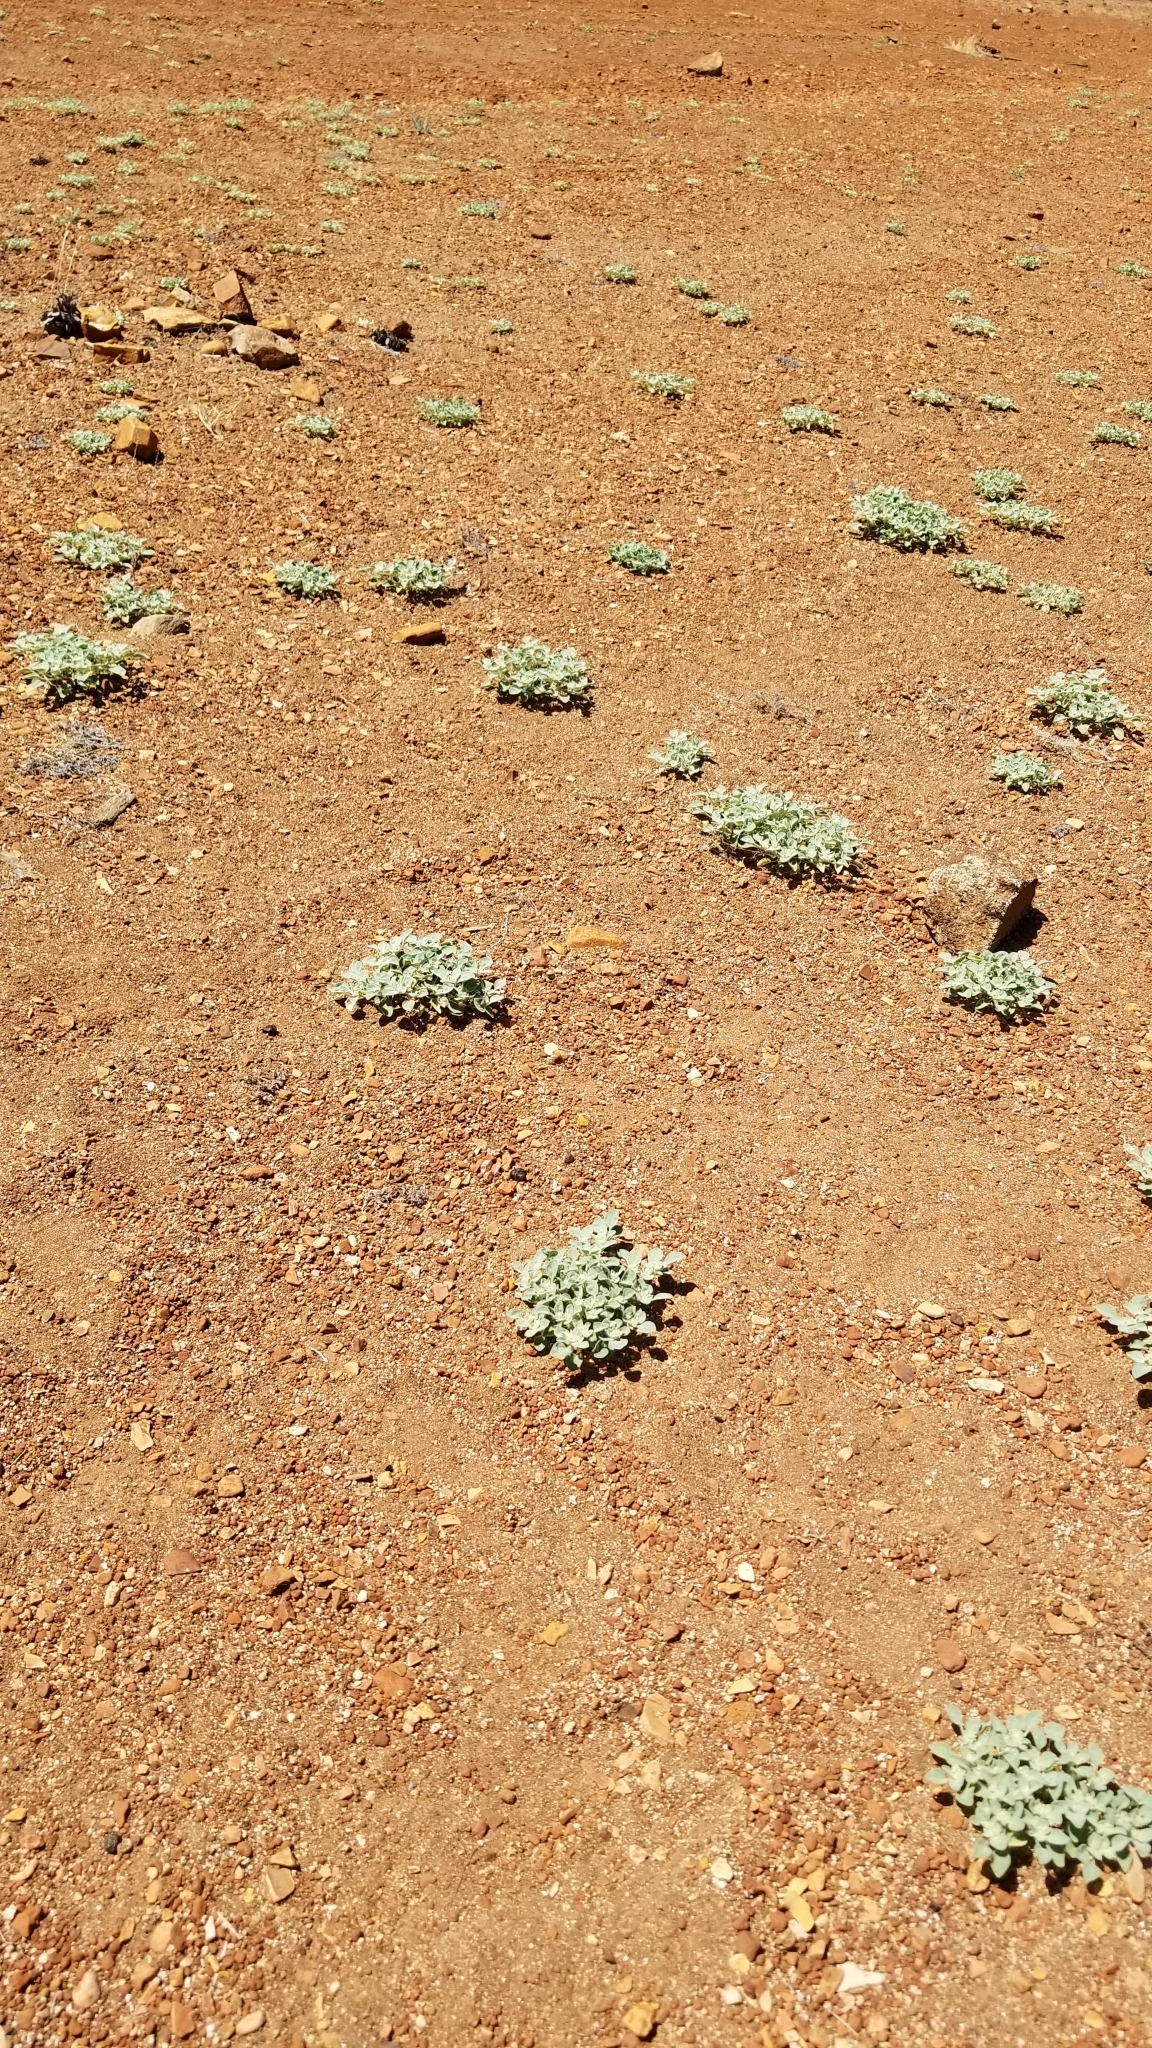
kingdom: Plantae
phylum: Tracheophyta
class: Magnoliopsida
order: Malpighiales
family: Euphorbiaceae
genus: Croton
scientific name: Croton setiger
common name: Dove weed
